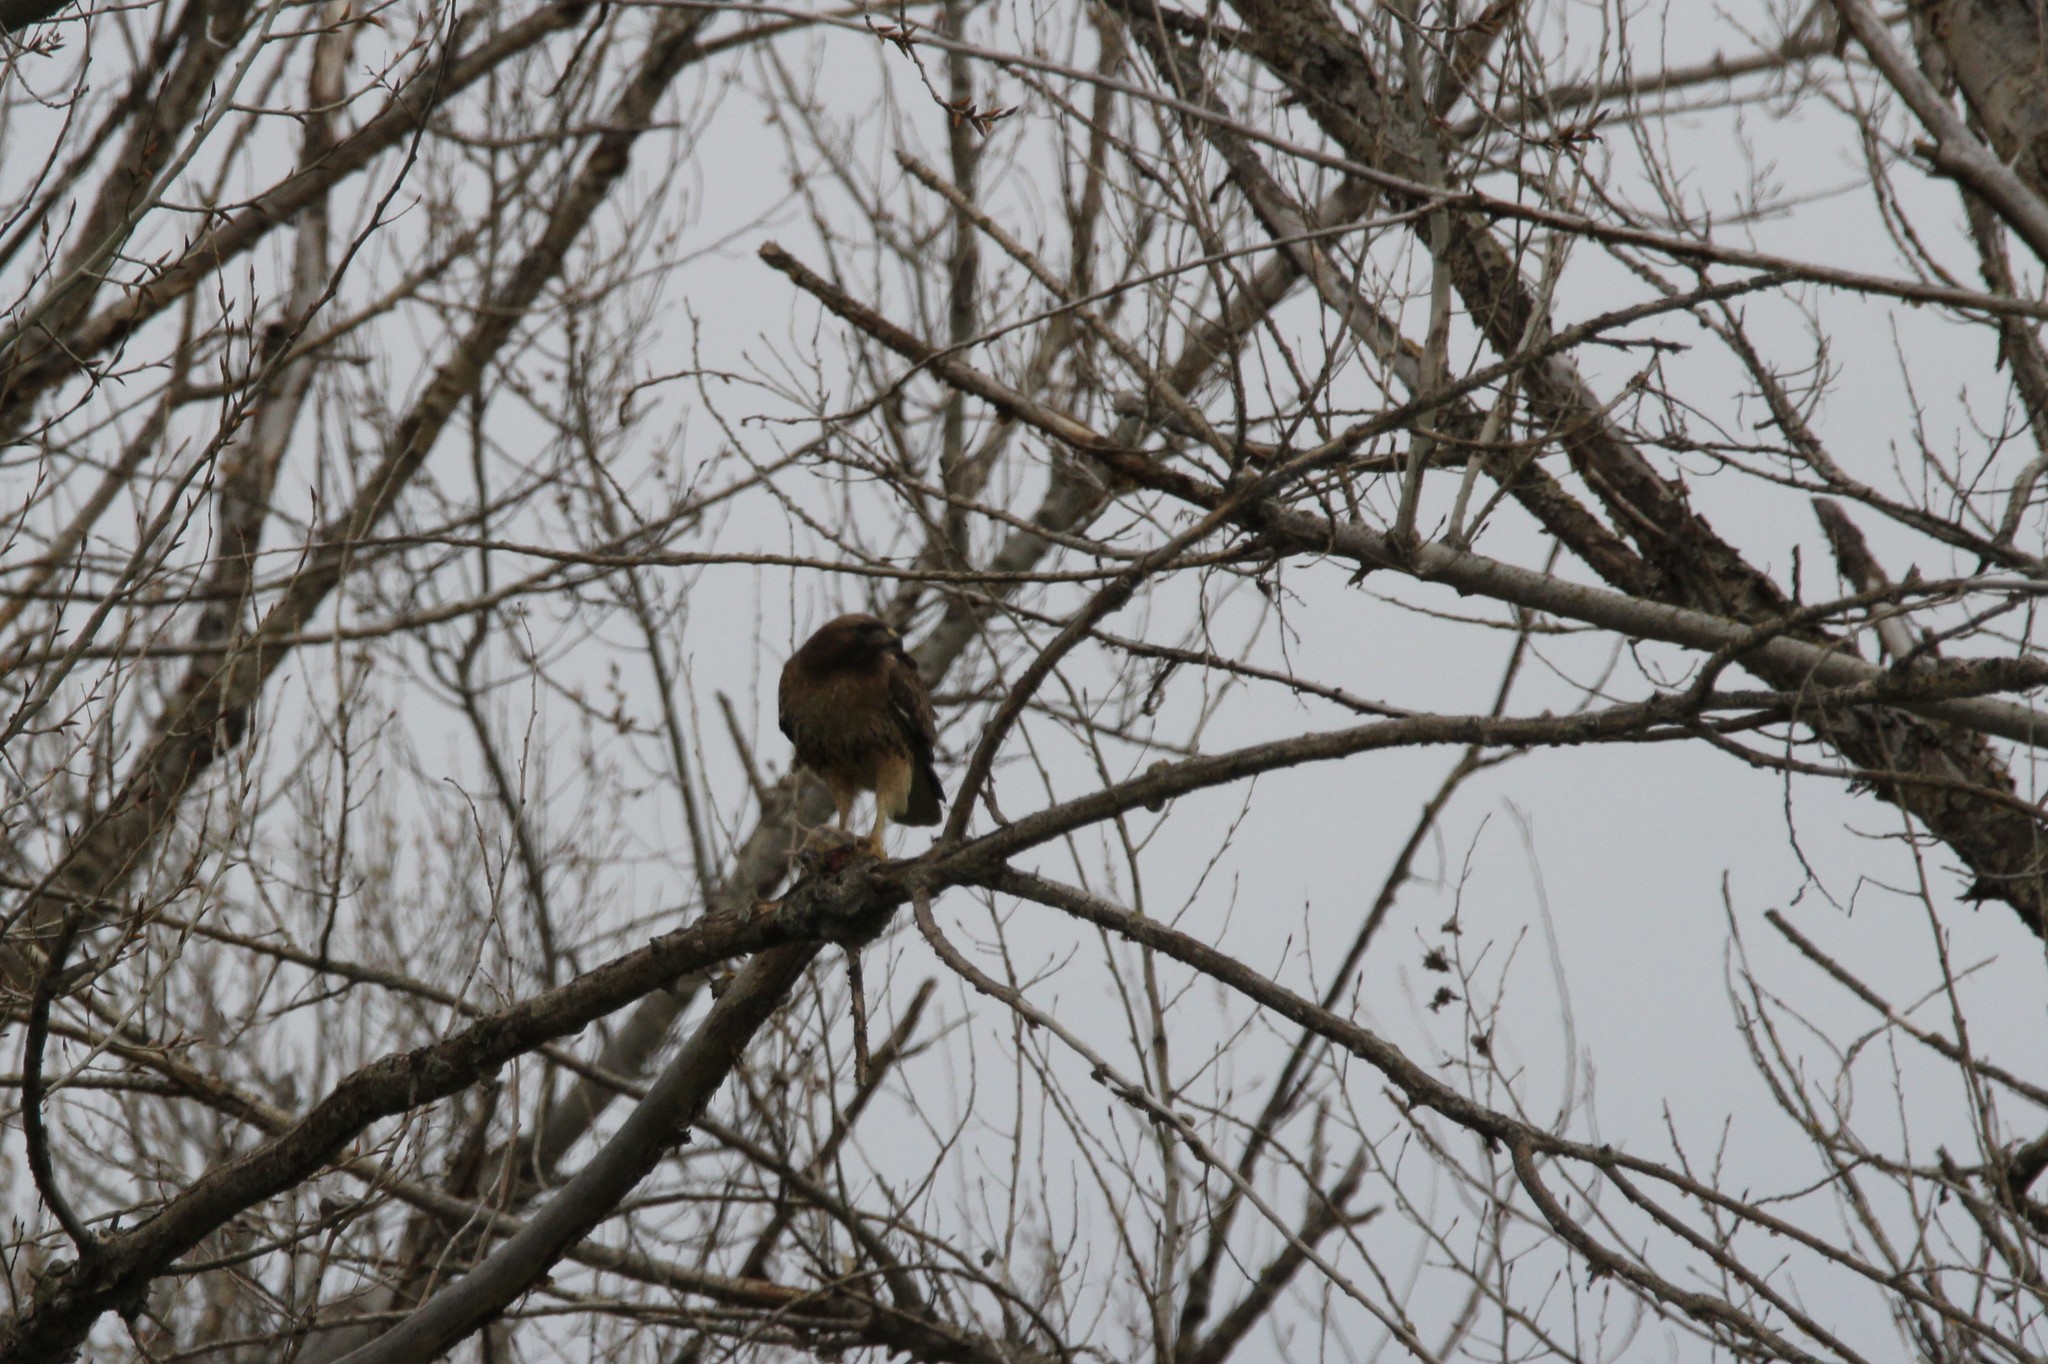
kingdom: Animalia
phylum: Chordata
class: Aves
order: Accipitriformes
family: Accipitridae
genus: Buteo
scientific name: Buteo jamaicensis
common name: Red-tailed hawk
